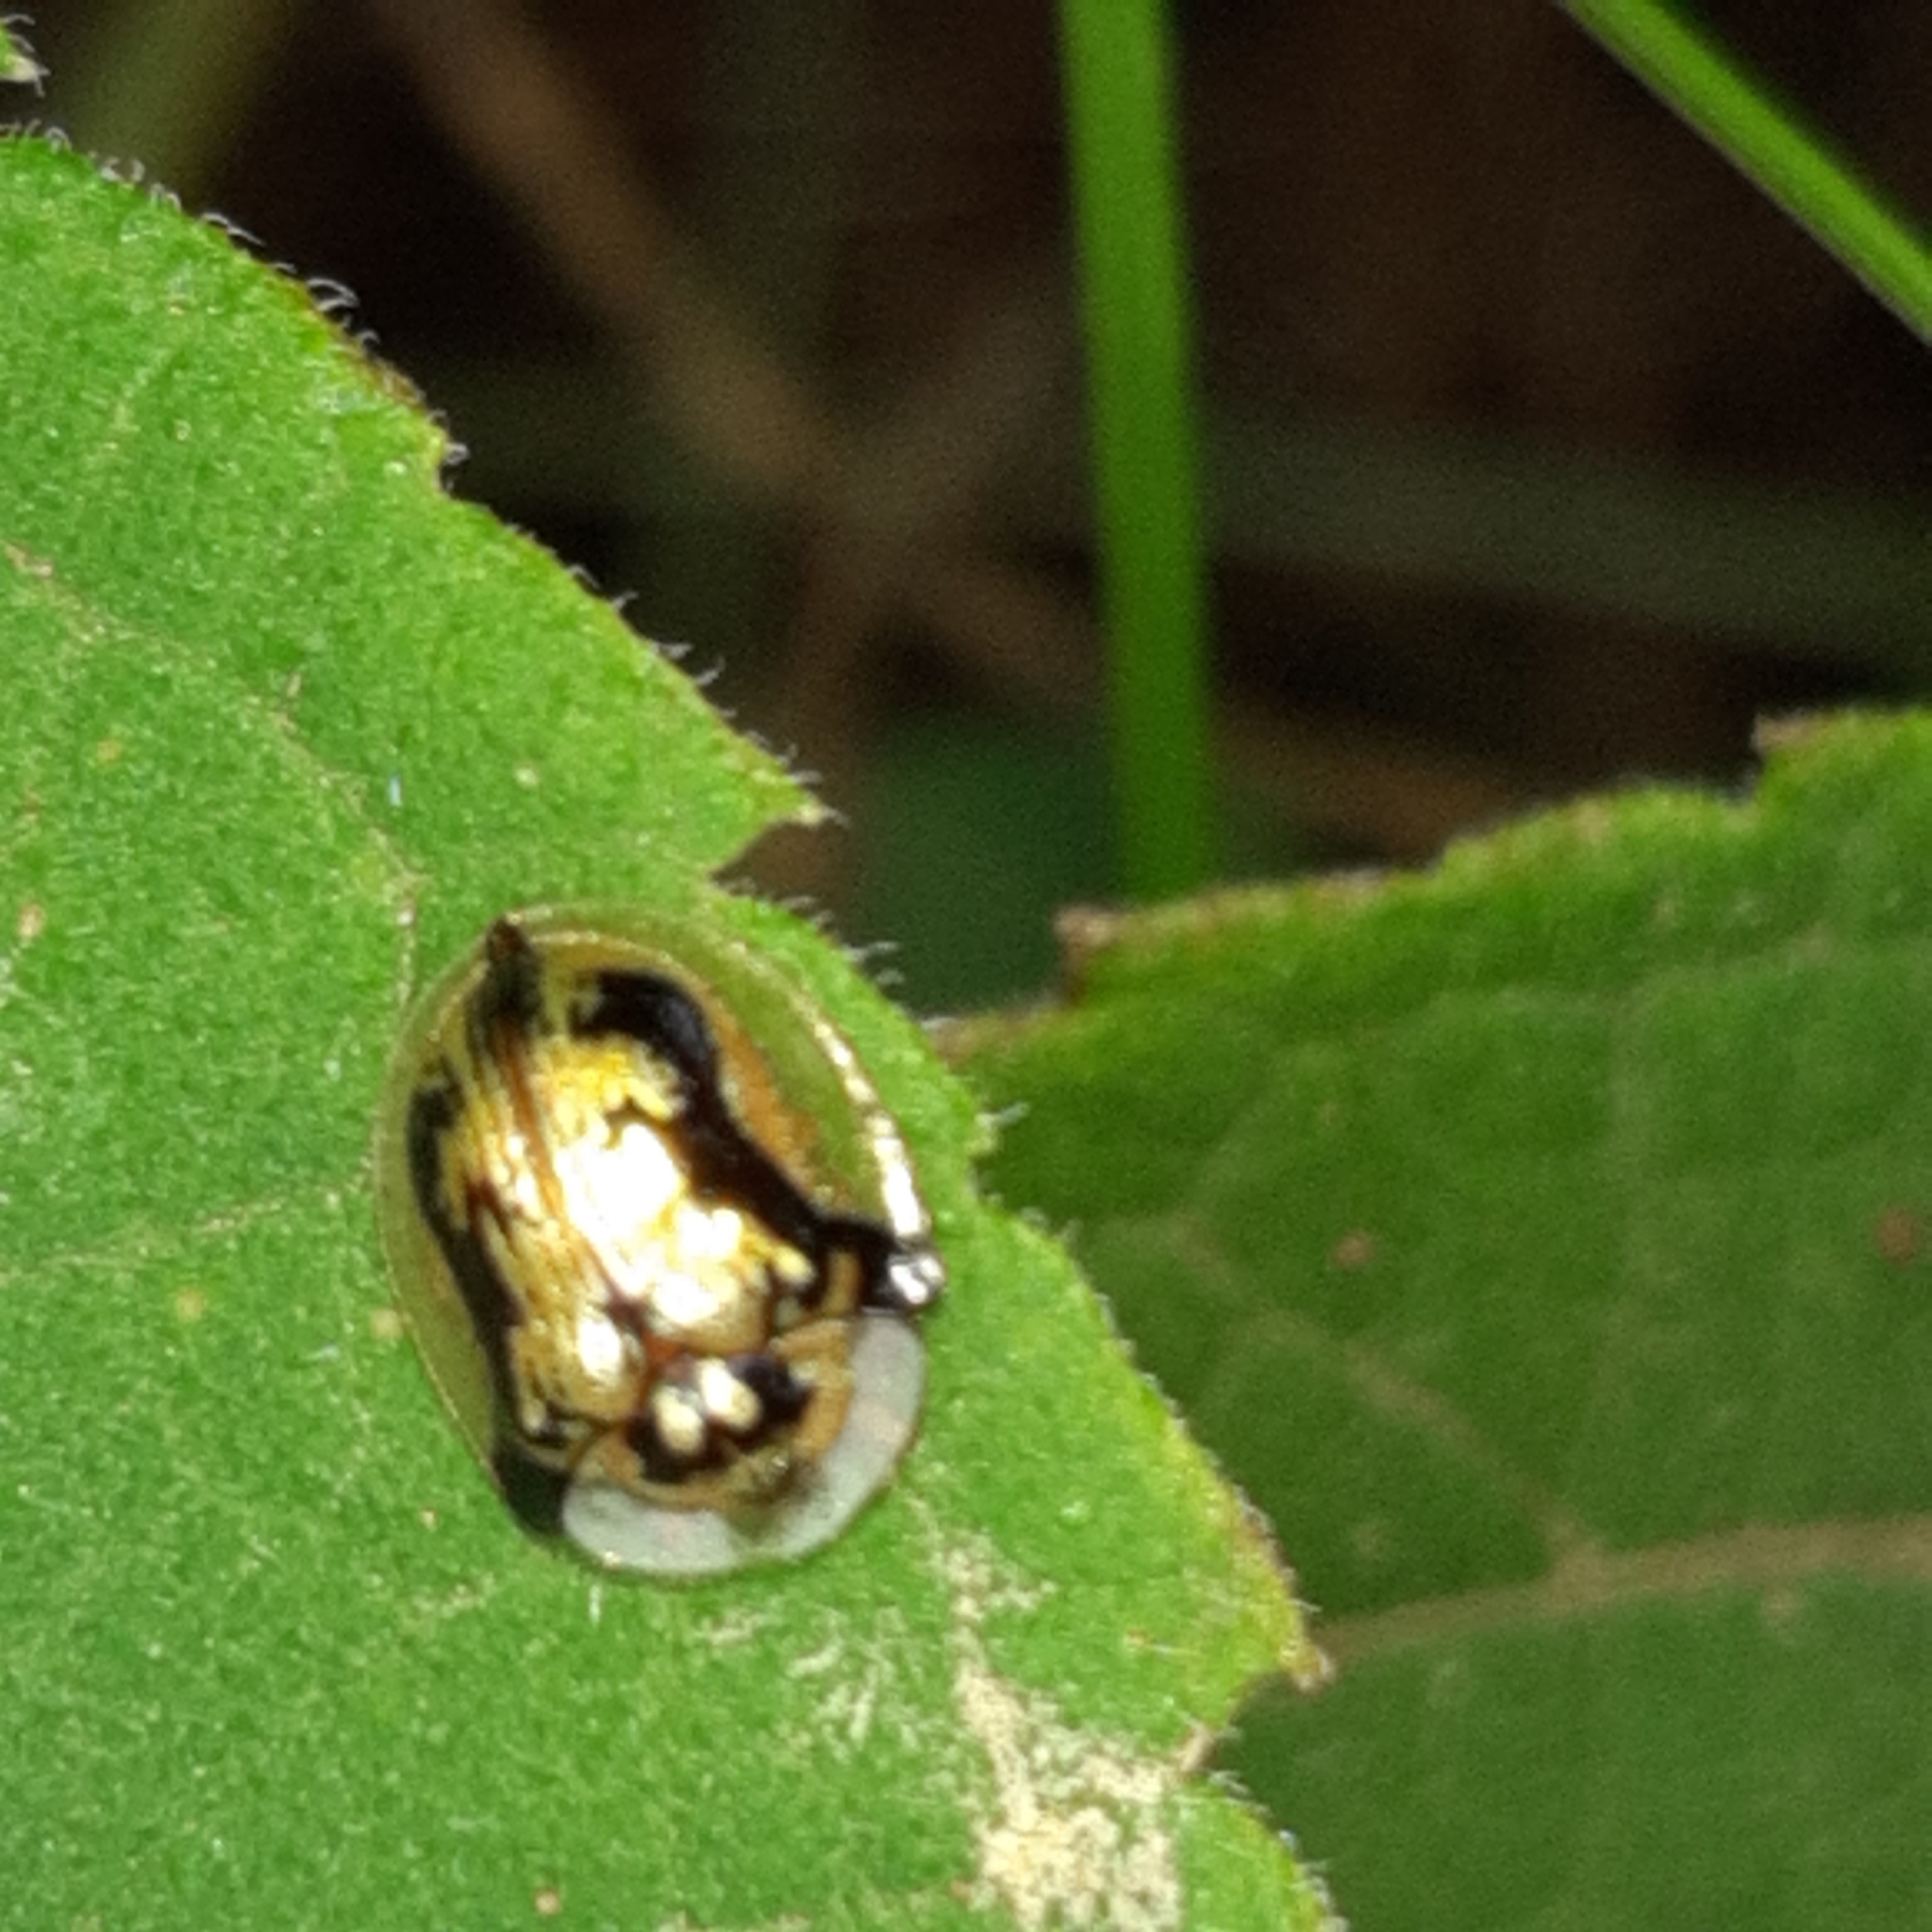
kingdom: Animalia
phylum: Arthropoda
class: Insecta
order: Coleoptera
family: Chrysomelidae
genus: Deloyala
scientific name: Deloyala fuliginosa
